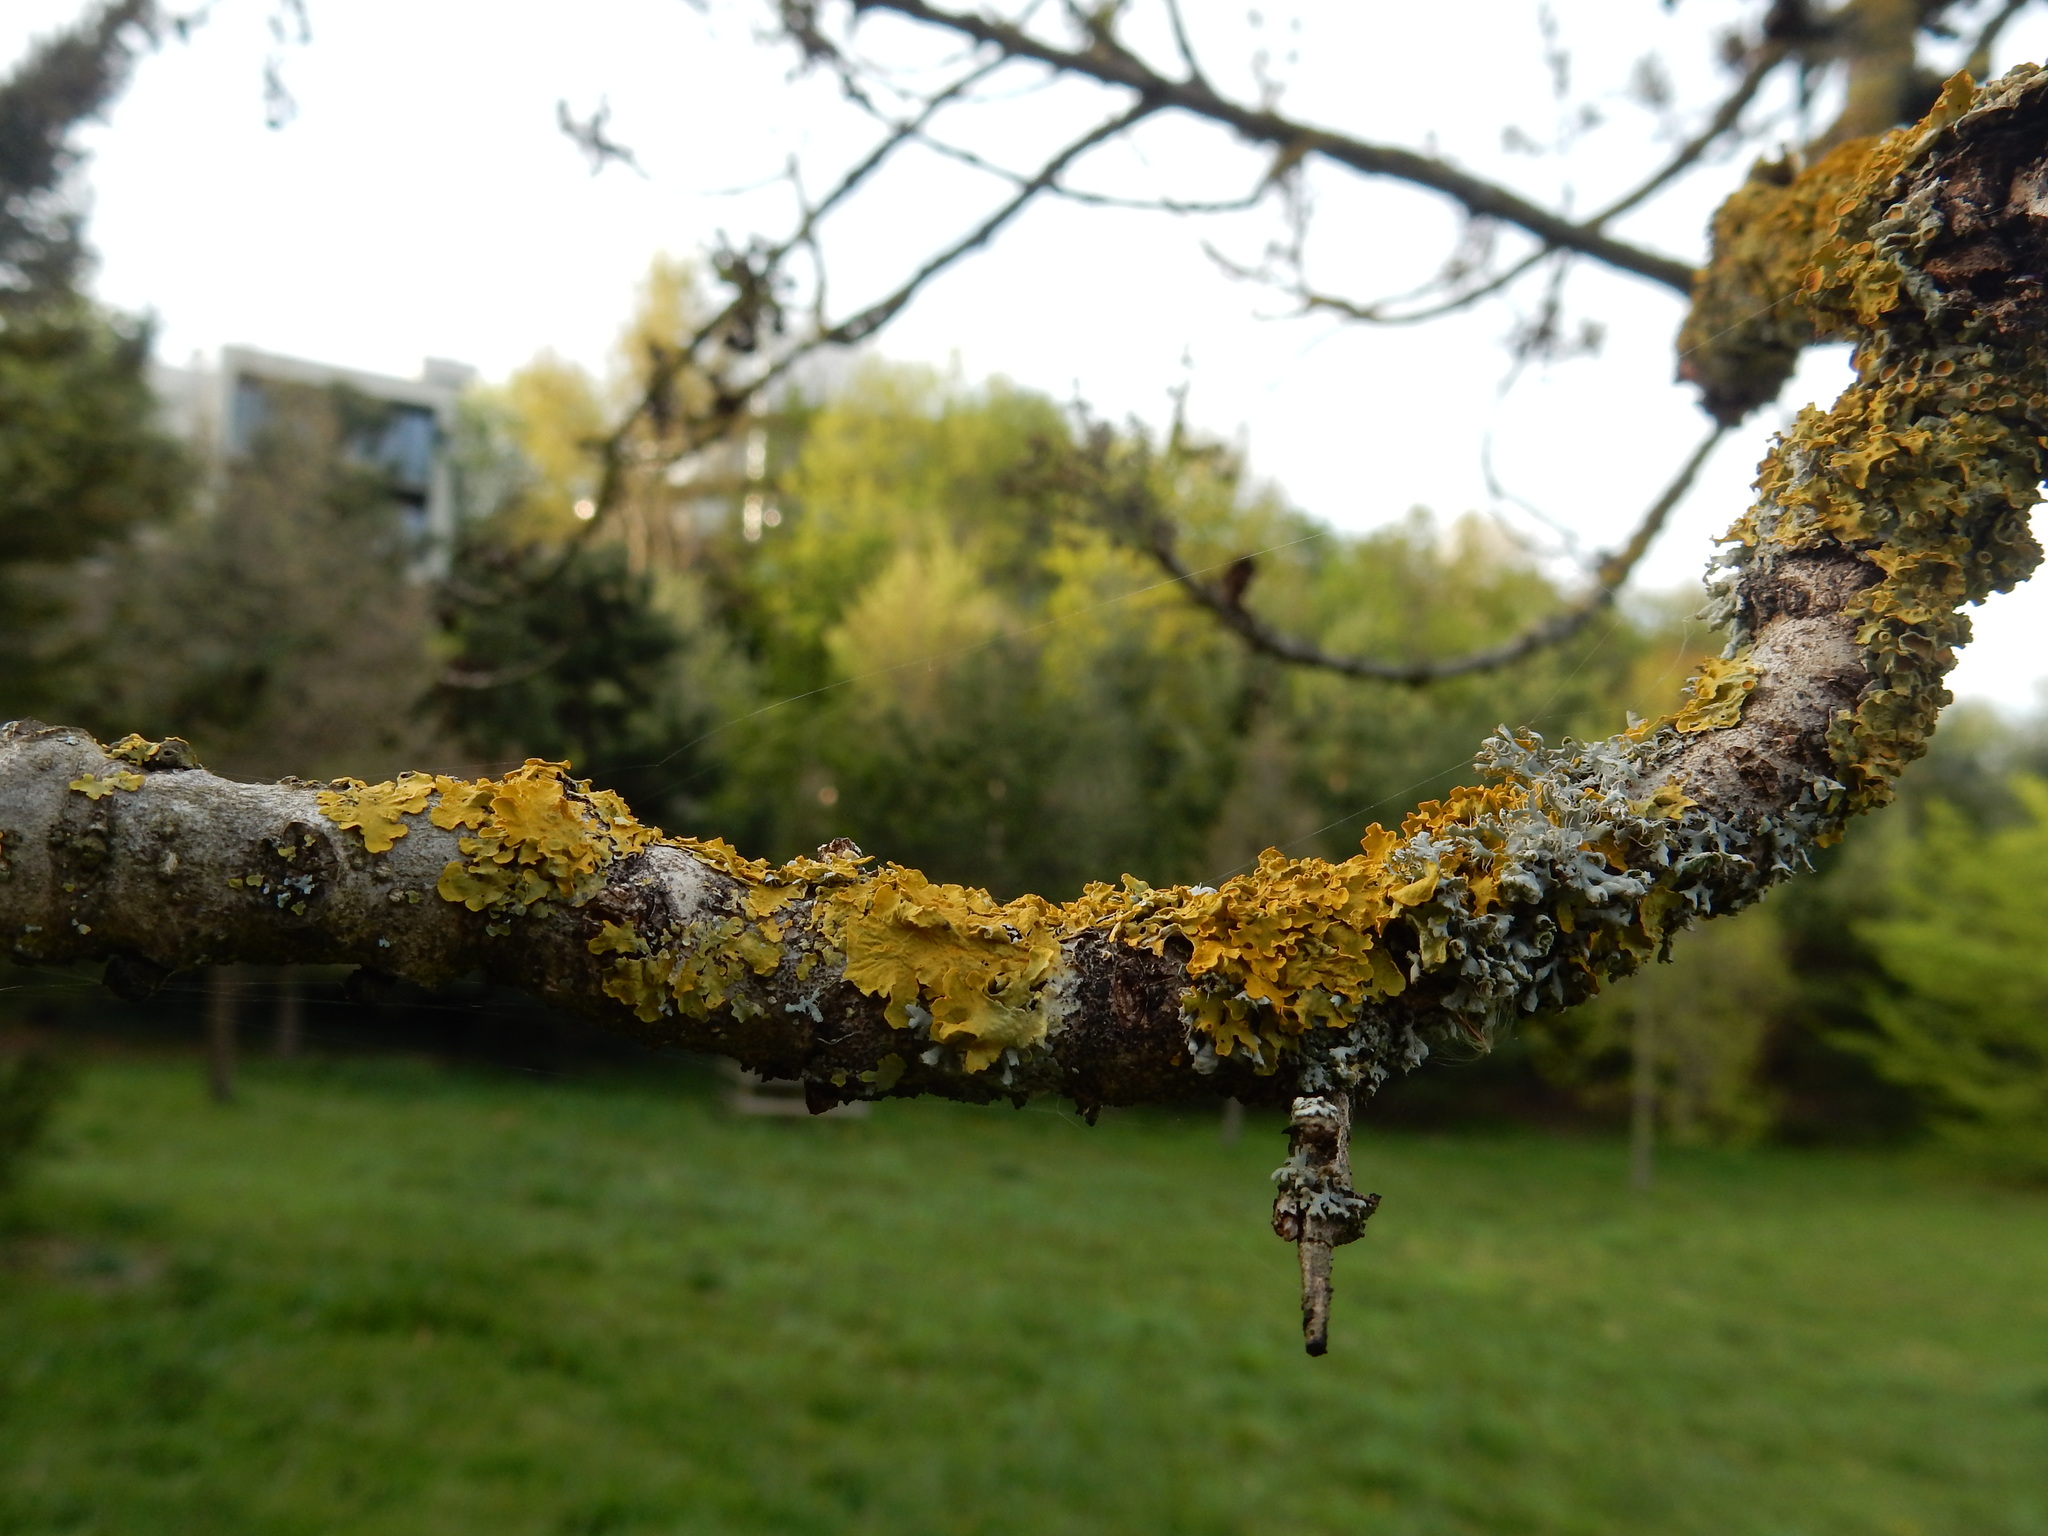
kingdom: Fungi
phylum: Ascomycota
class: Lecanoromycetes
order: Teloschistales
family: Teloschistaceae
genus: Xanthoria
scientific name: Xanthoria parietina
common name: Common orange lichen
